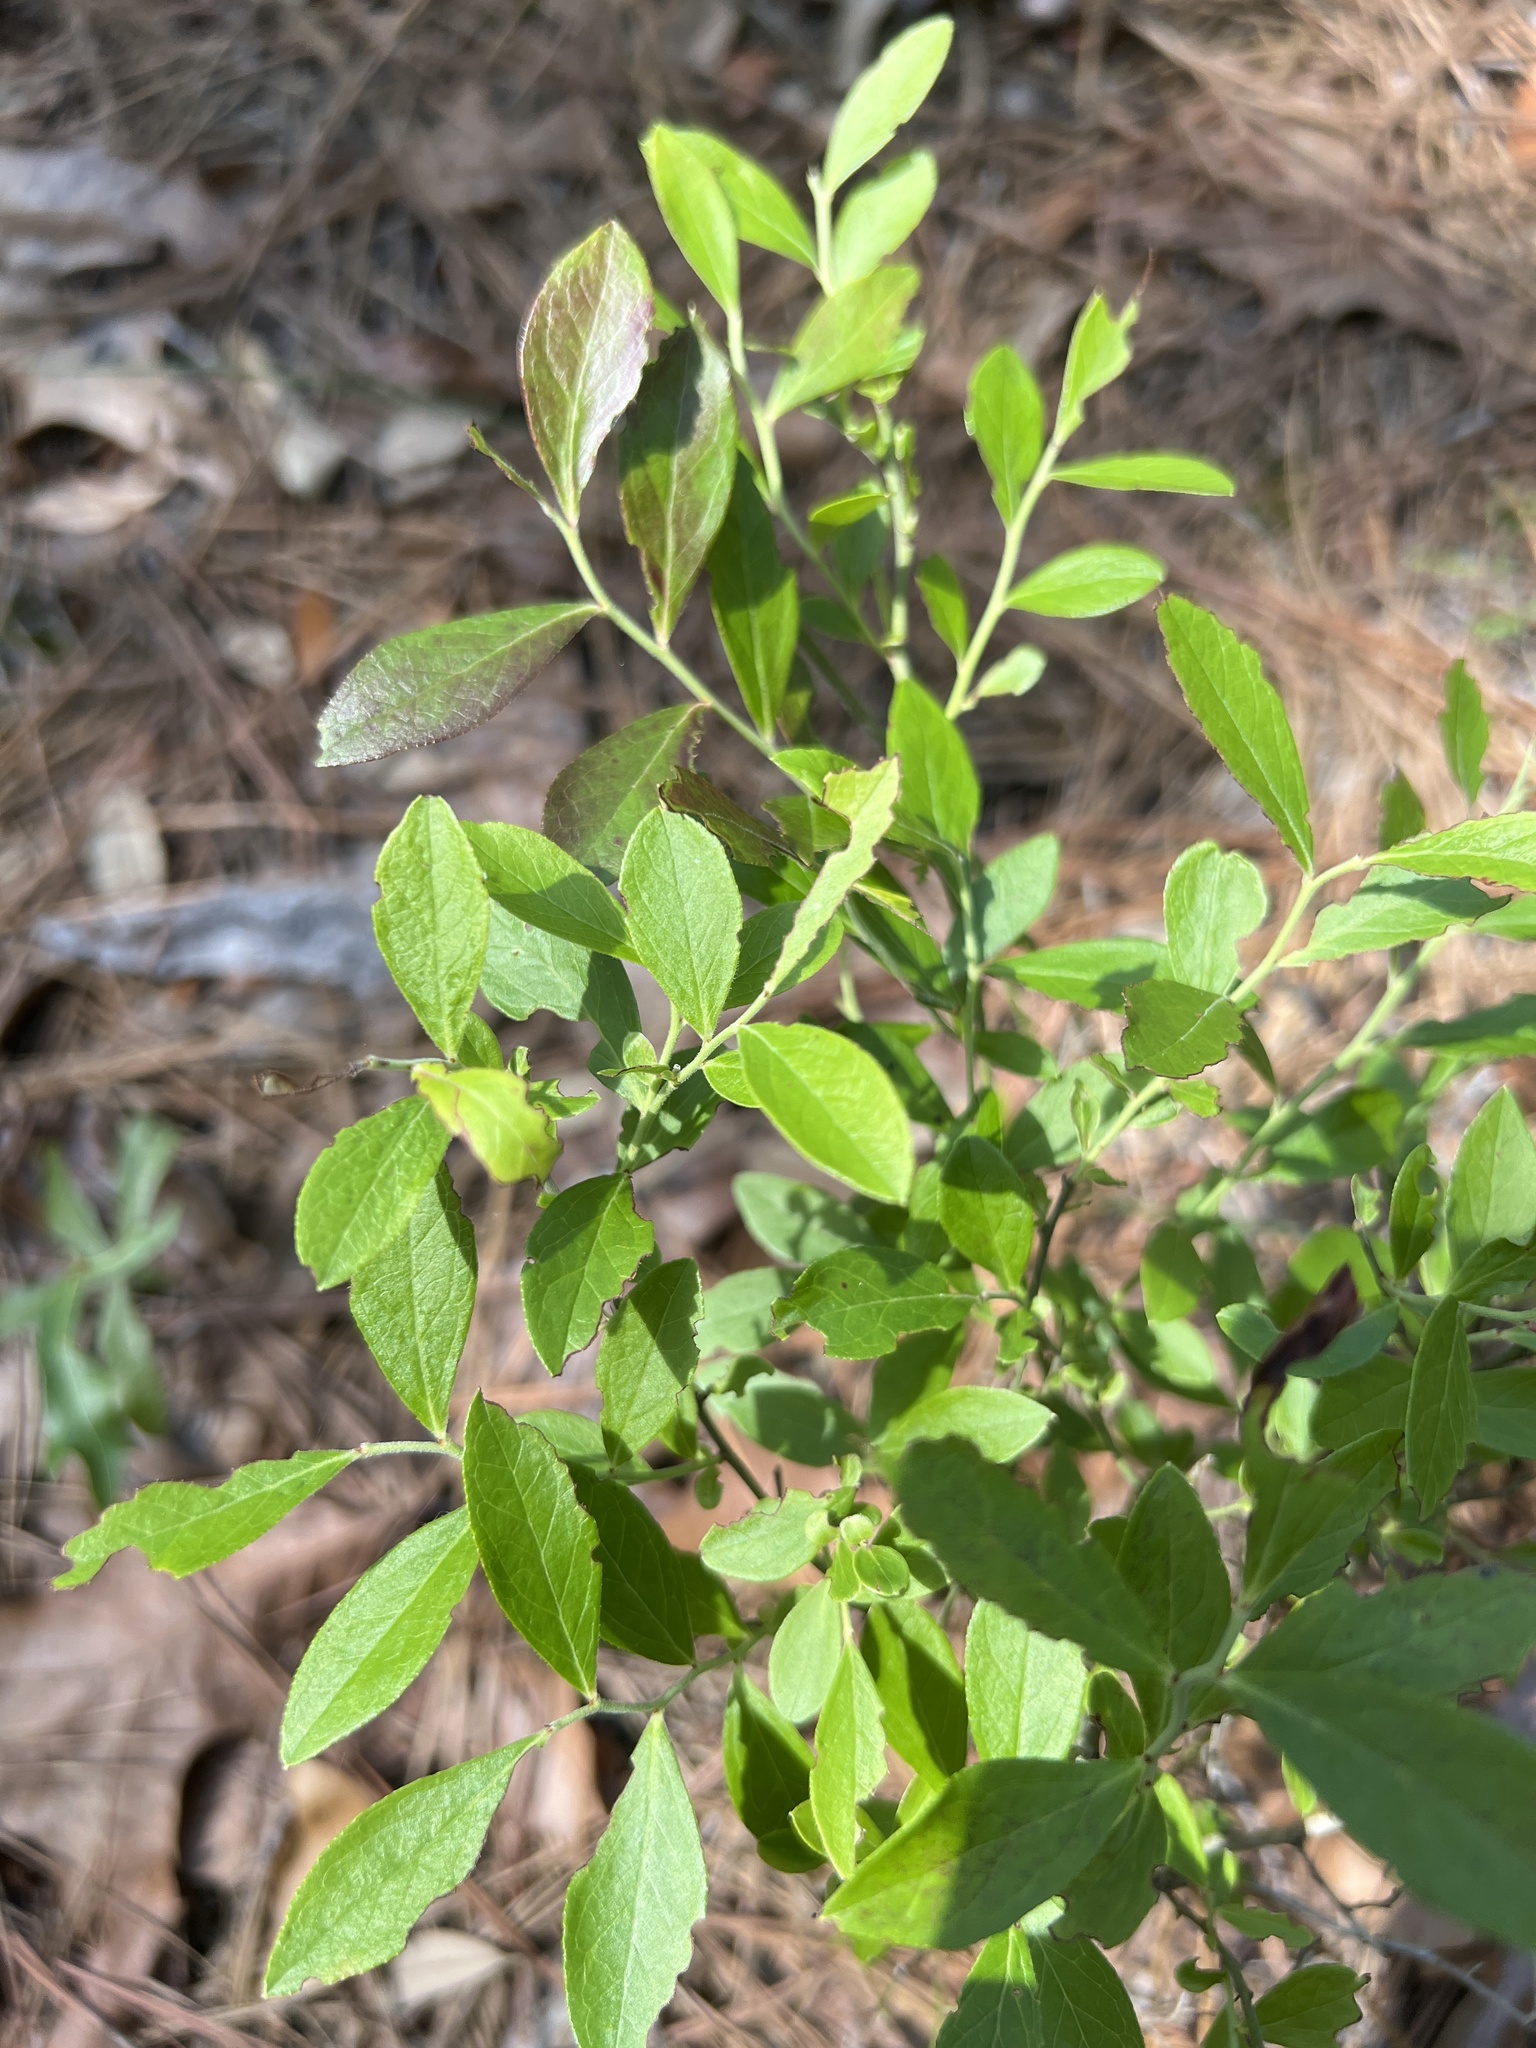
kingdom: Plantae
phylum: Tracheophyta
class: Magnoliopsida
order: Ericales
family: Ericaceae
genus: Vaccinium
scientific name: Vaccinium tenellum
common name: Southern blueberry
